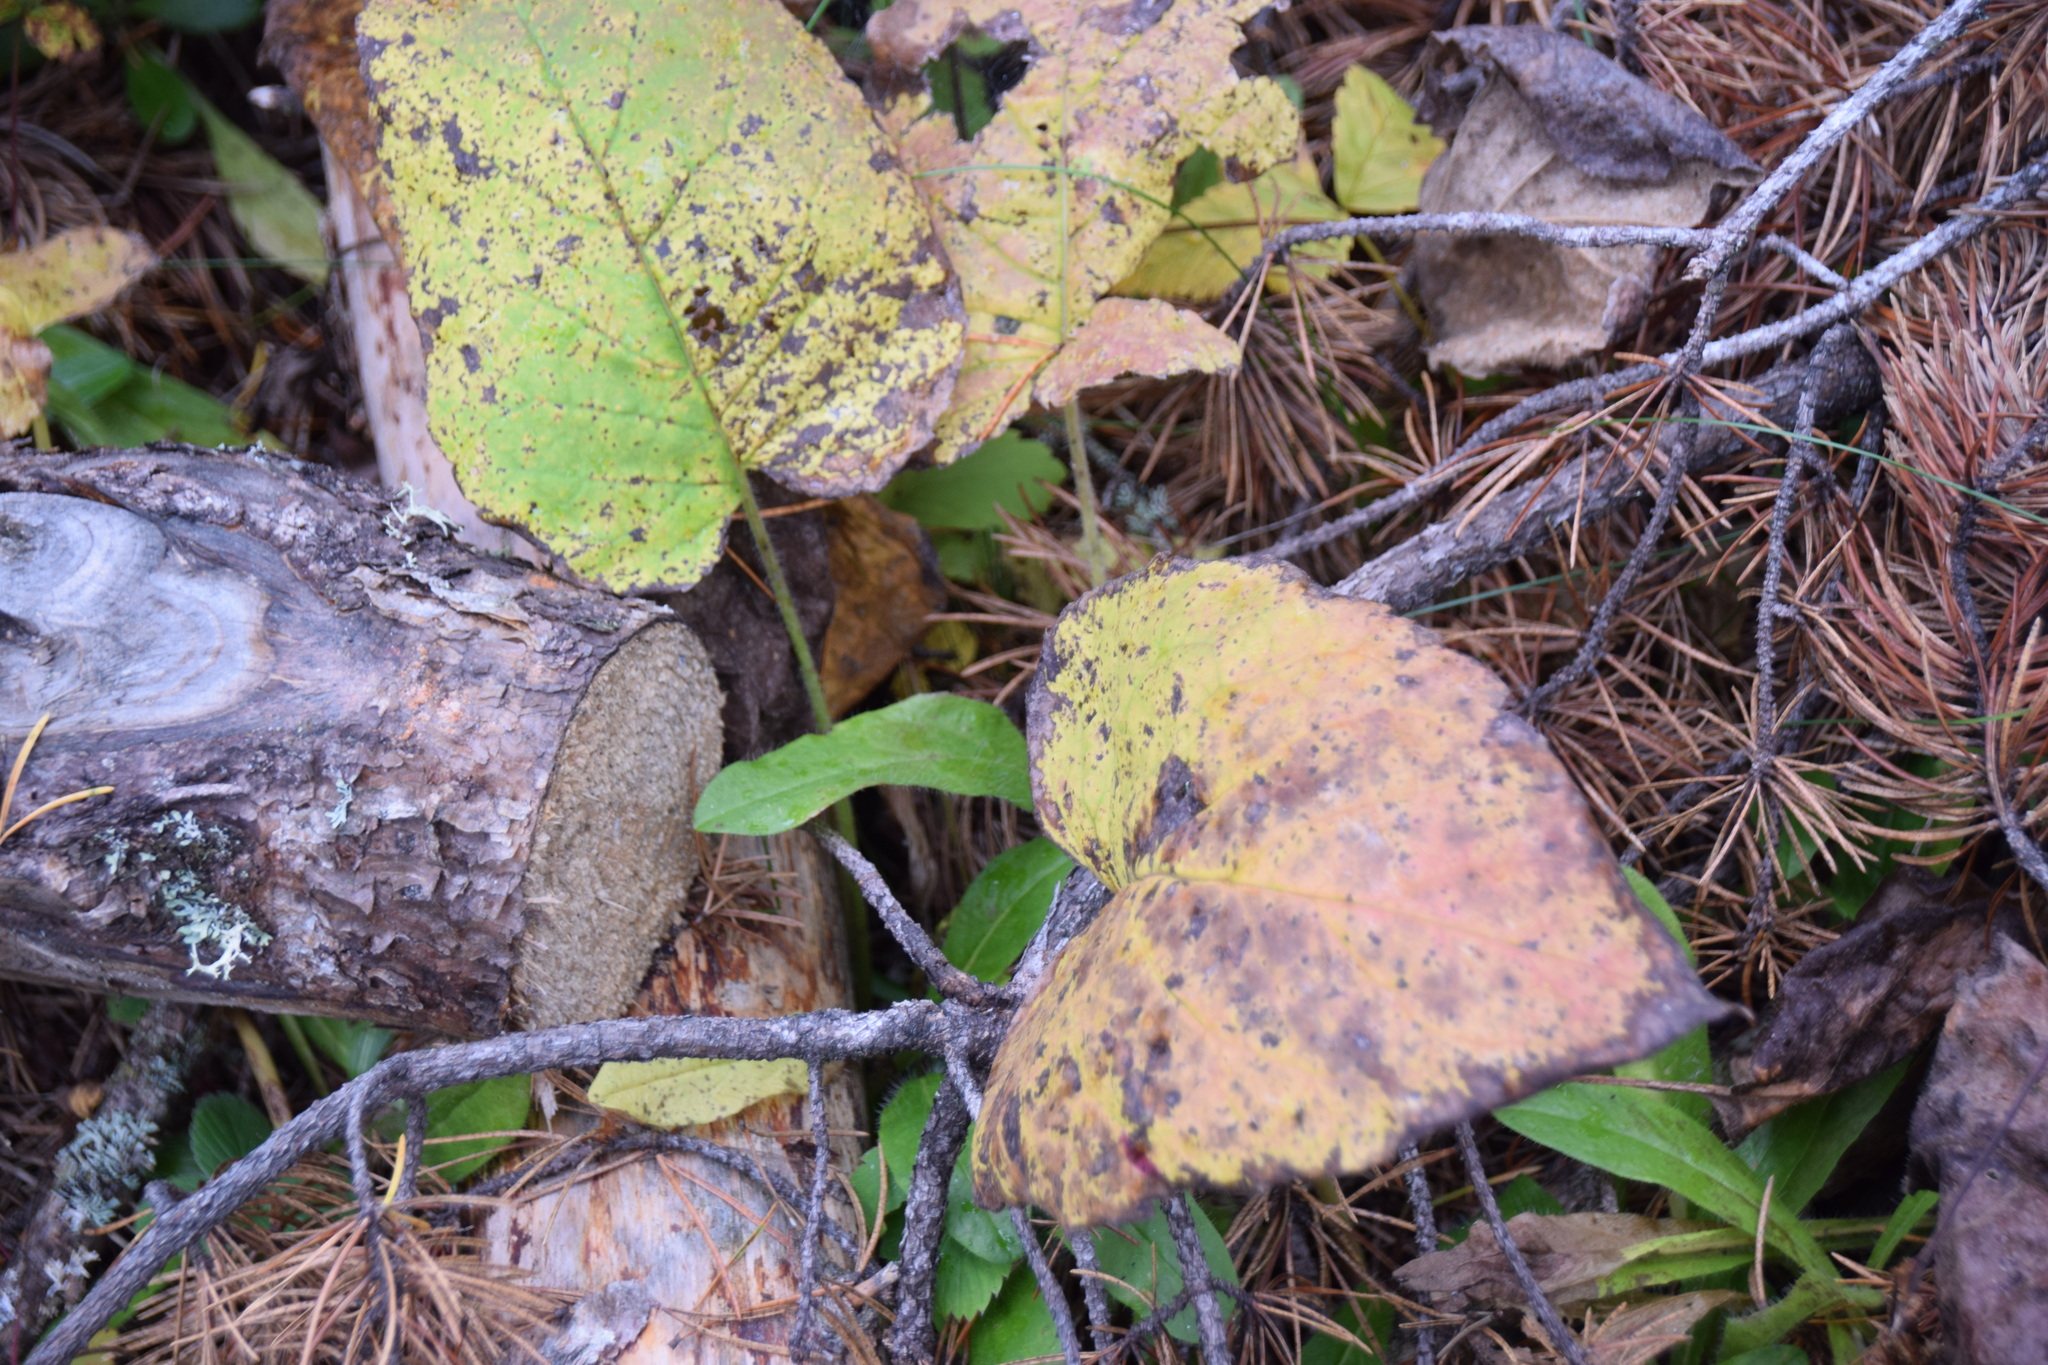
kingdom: Plantae
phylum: Tracheophyta
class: Magnoliopsida
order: Asterales
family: Asteraceae
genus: Eurybia
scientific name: Eurybia macrophylla
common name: Big-leaved aster
